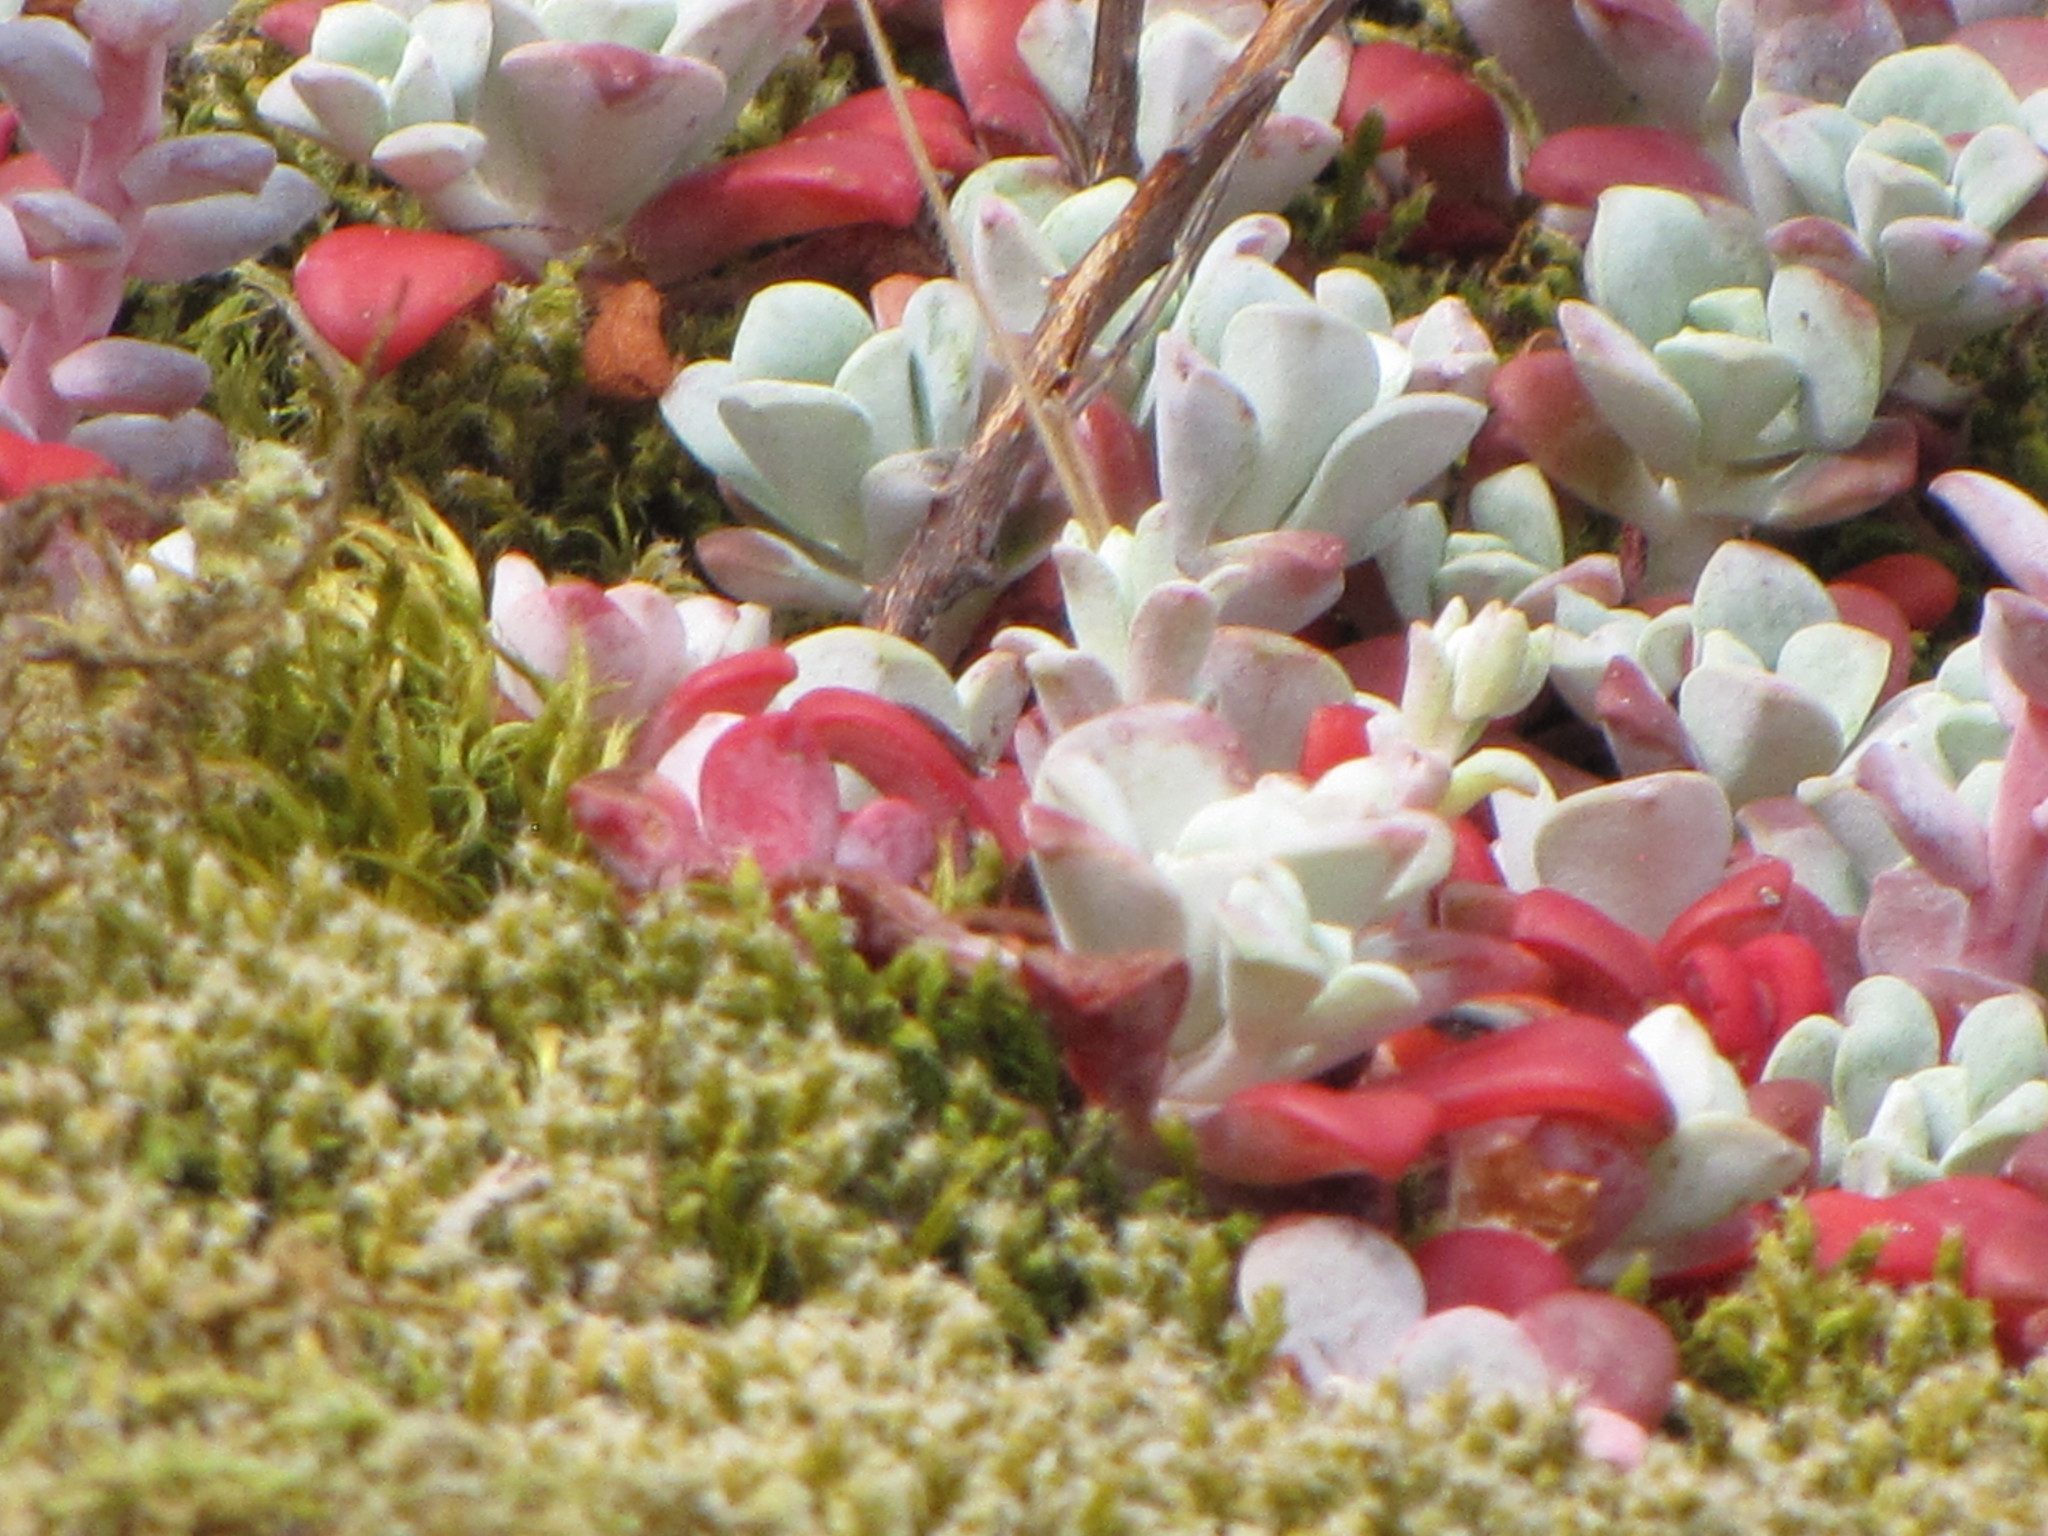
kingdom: Plantae
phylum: Tracheophyta
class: Magnoliopsida
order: Saxifragales
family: Crassulaceae
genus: Sedum
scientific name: Sedum spathulifolium
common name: Colorado stonecrop
